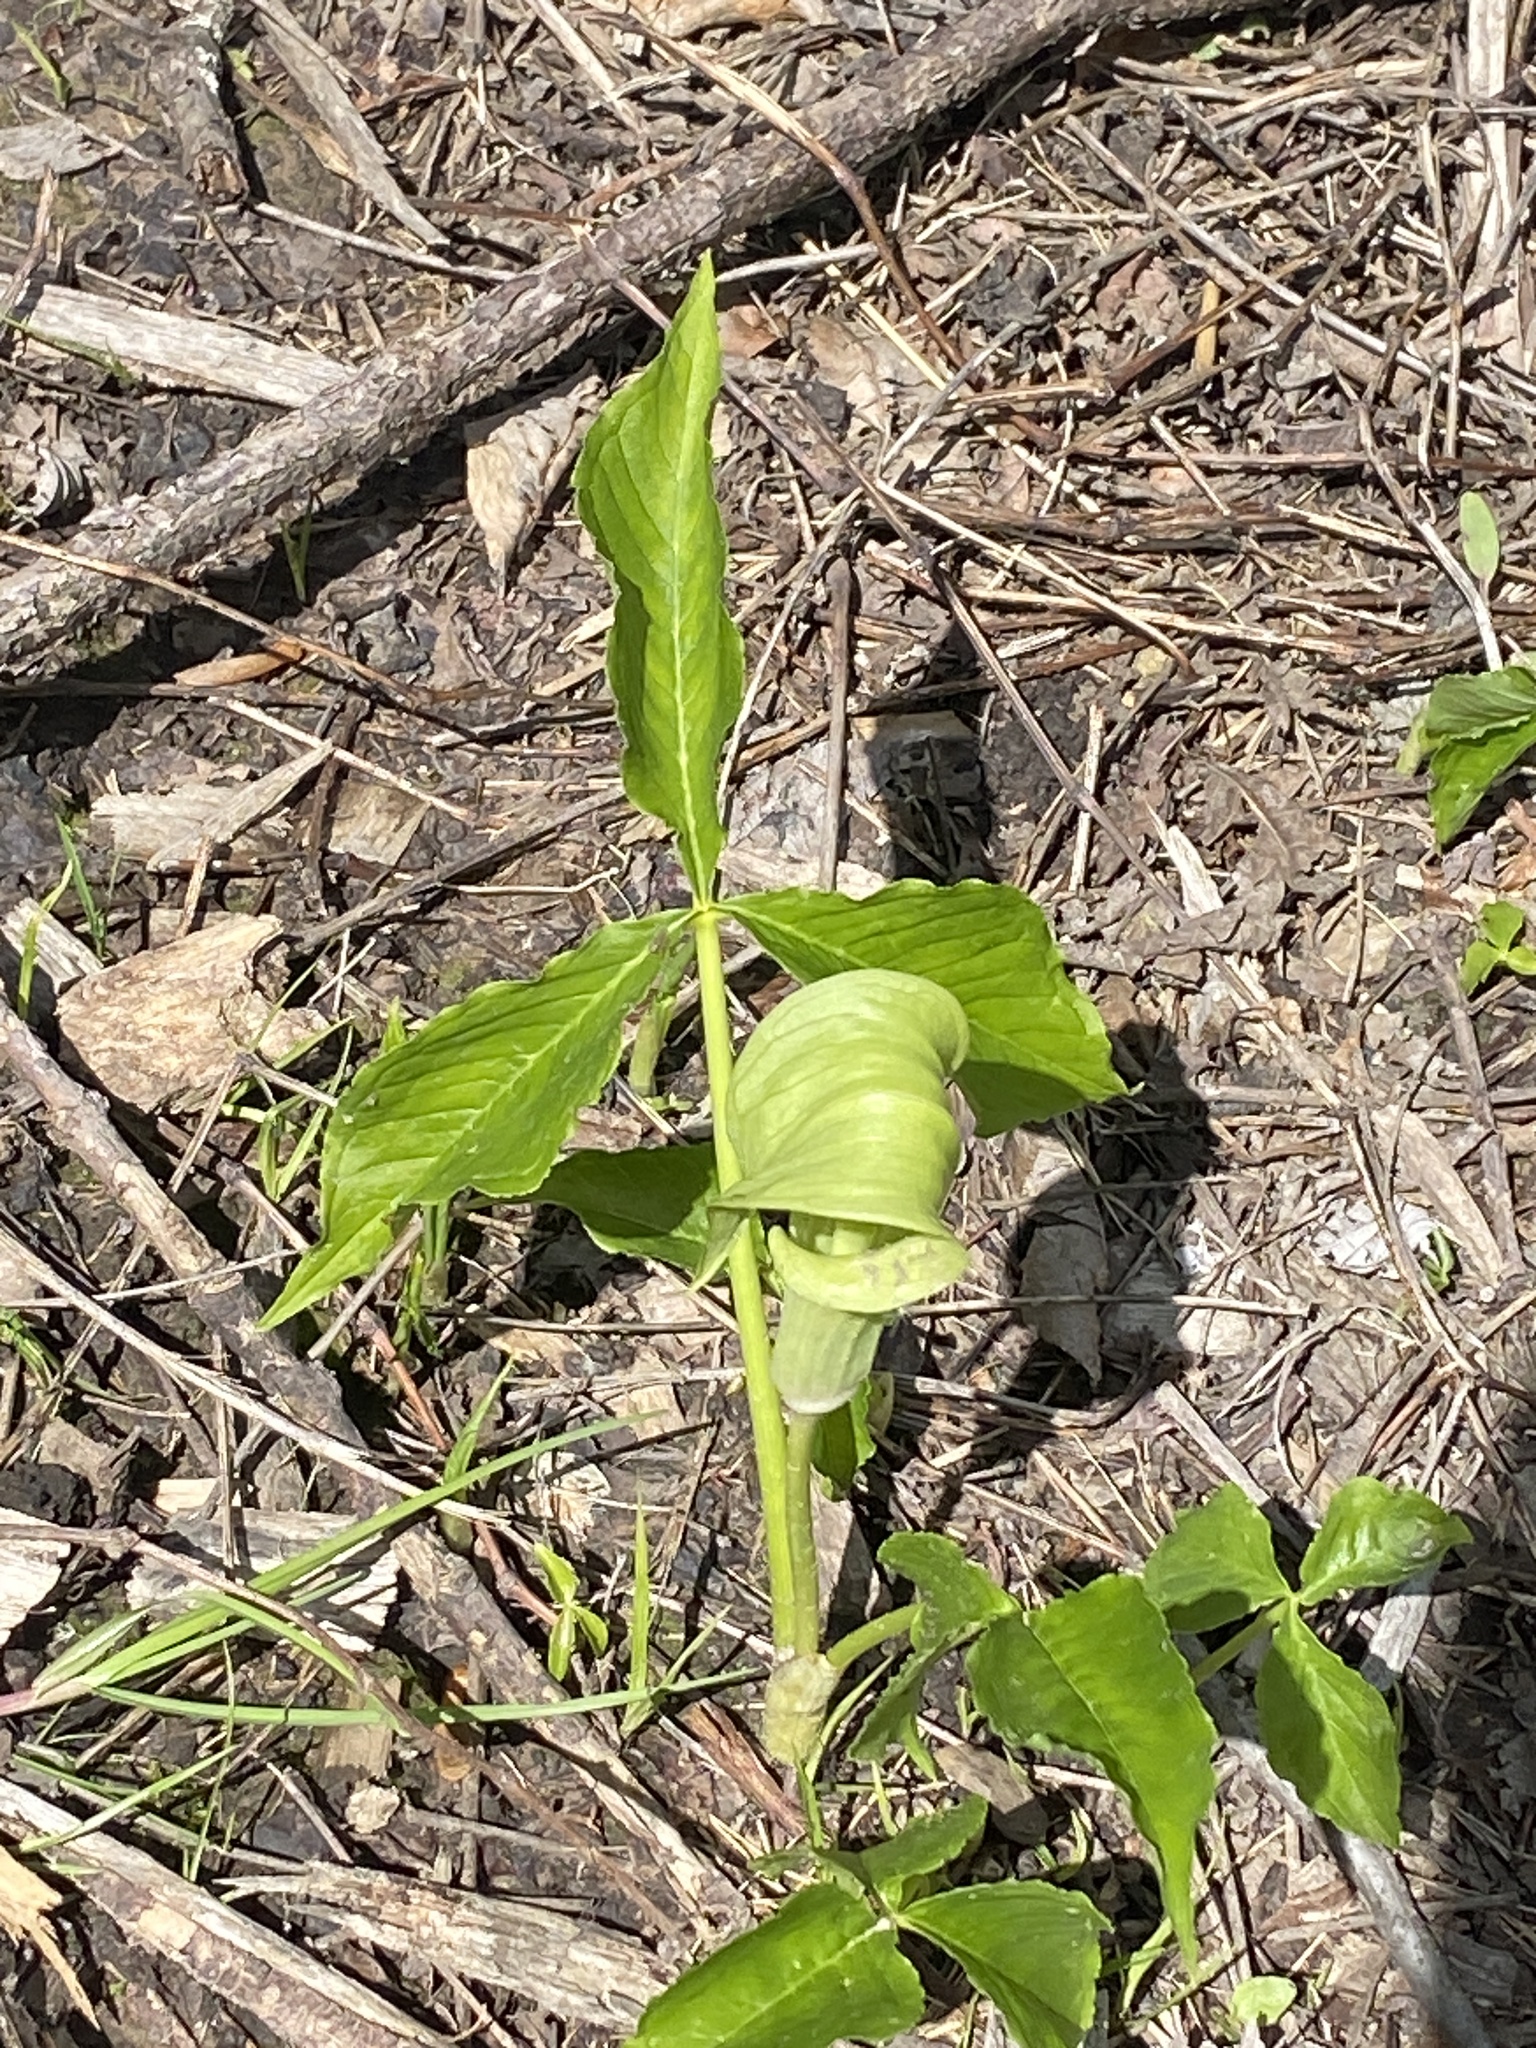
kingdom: Plantae
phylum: Tracheophyta
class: Liliopsida
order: Alismatales
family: Araceae
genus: Arisaema
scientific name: Arisaema triphyllum
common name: Jack-in-the-pulpit
